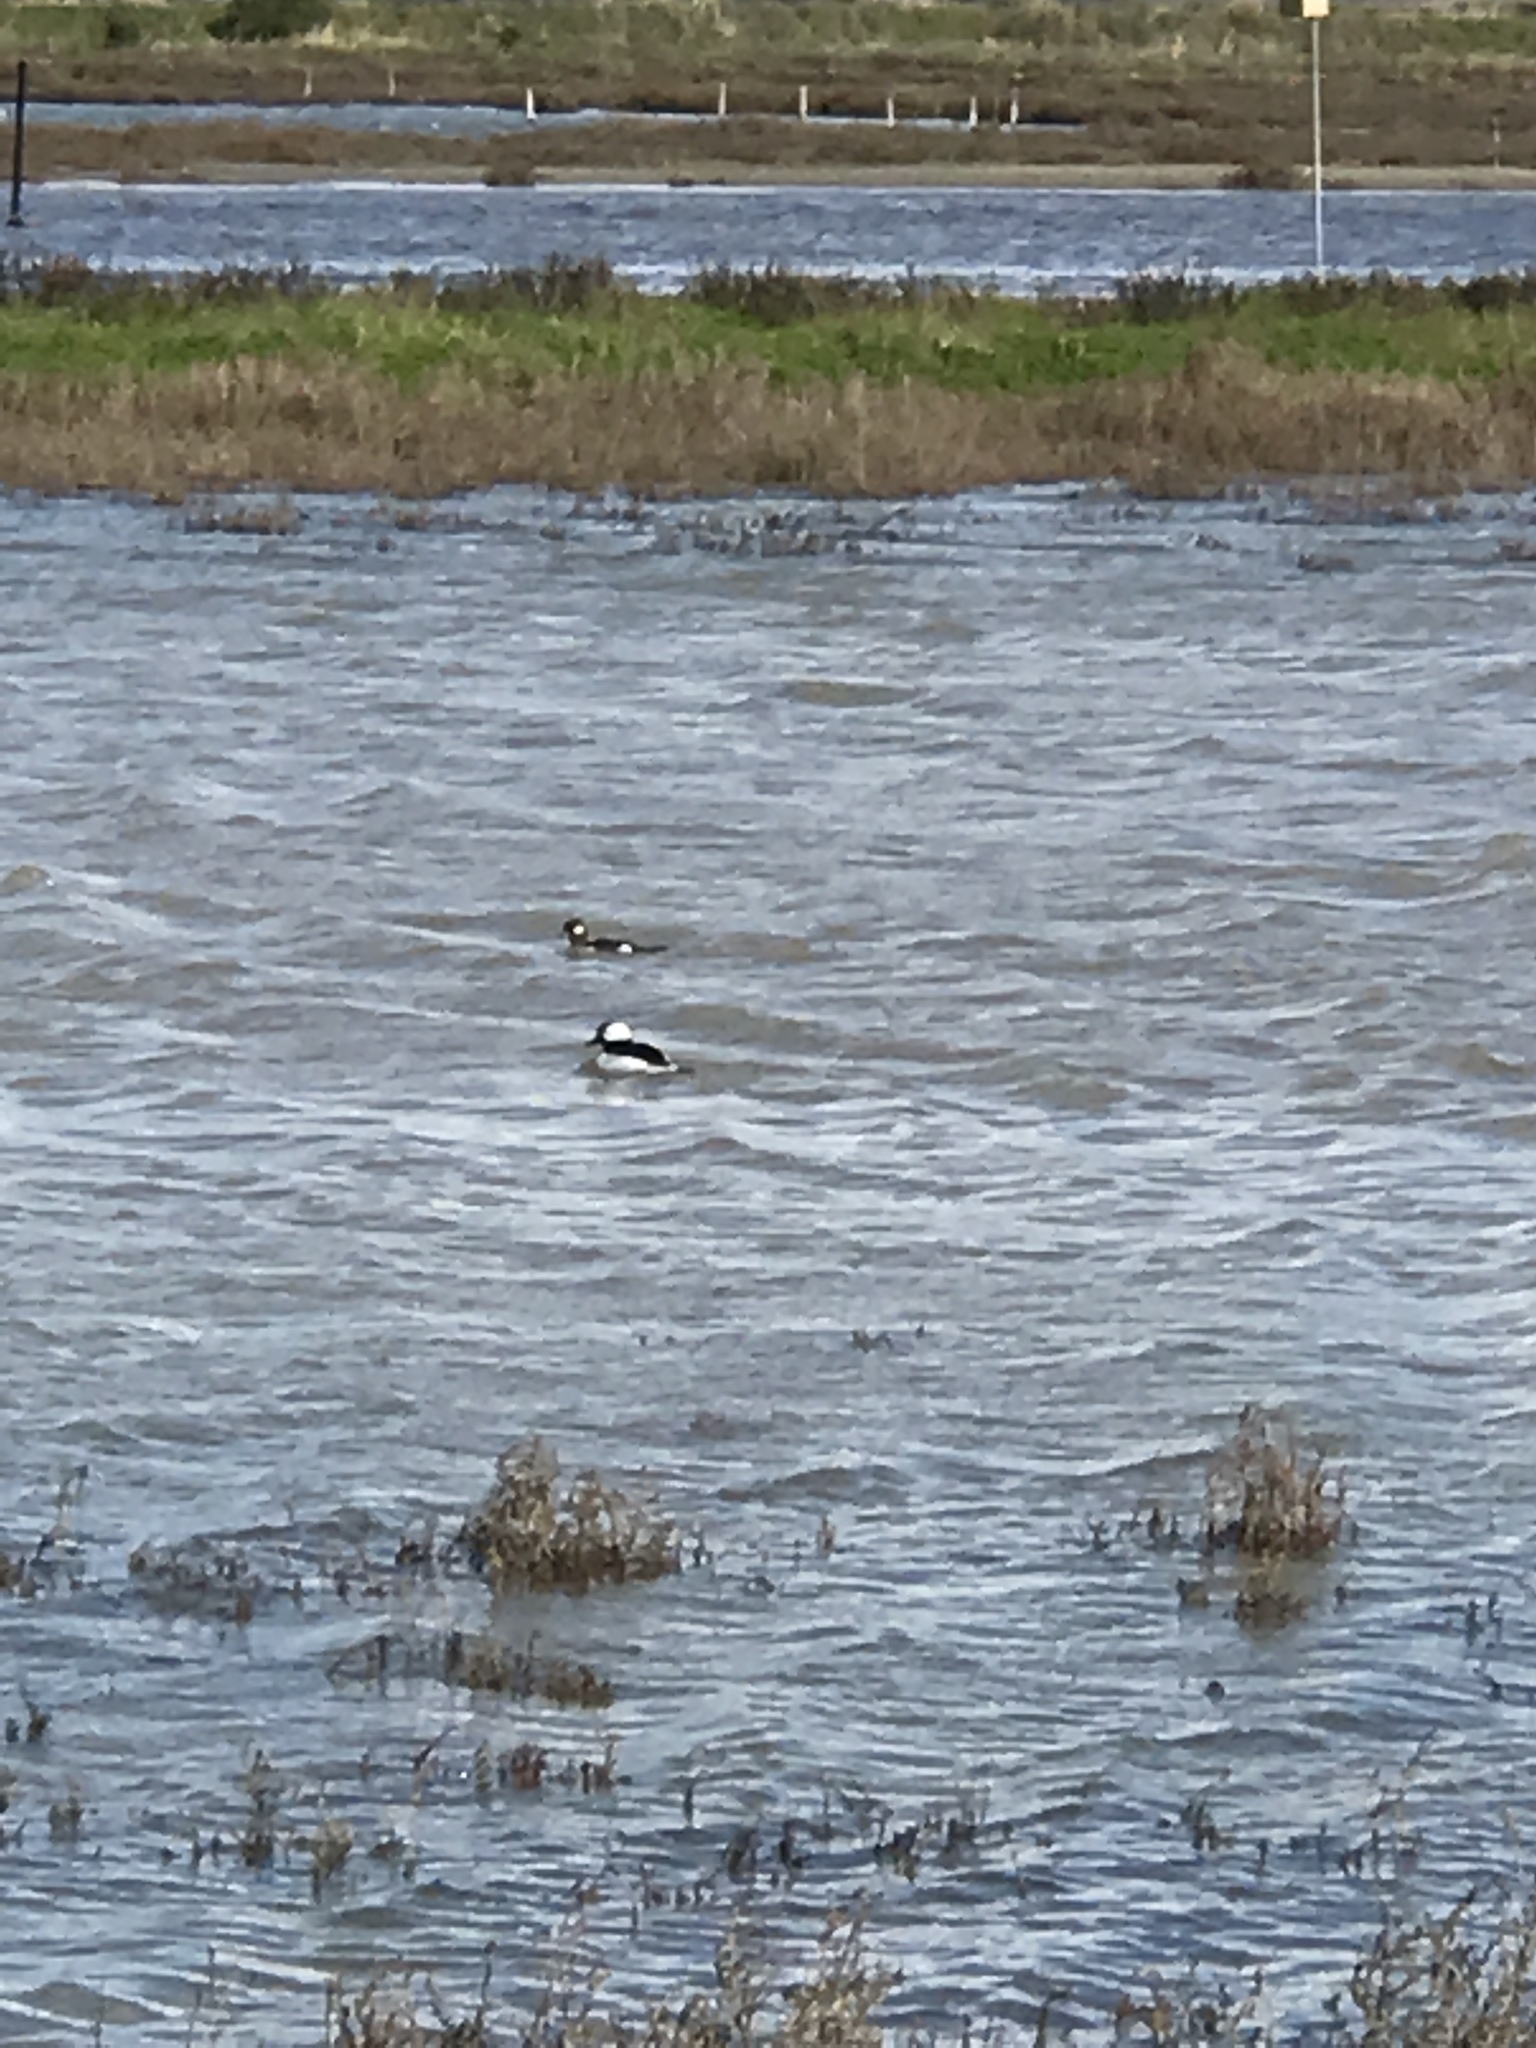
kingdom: Animalia
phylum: Chordata
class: Aves
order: Anseriformes
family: Anatidae
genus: Bucephala
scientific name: Bucephala albeola
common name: Bufflehead
